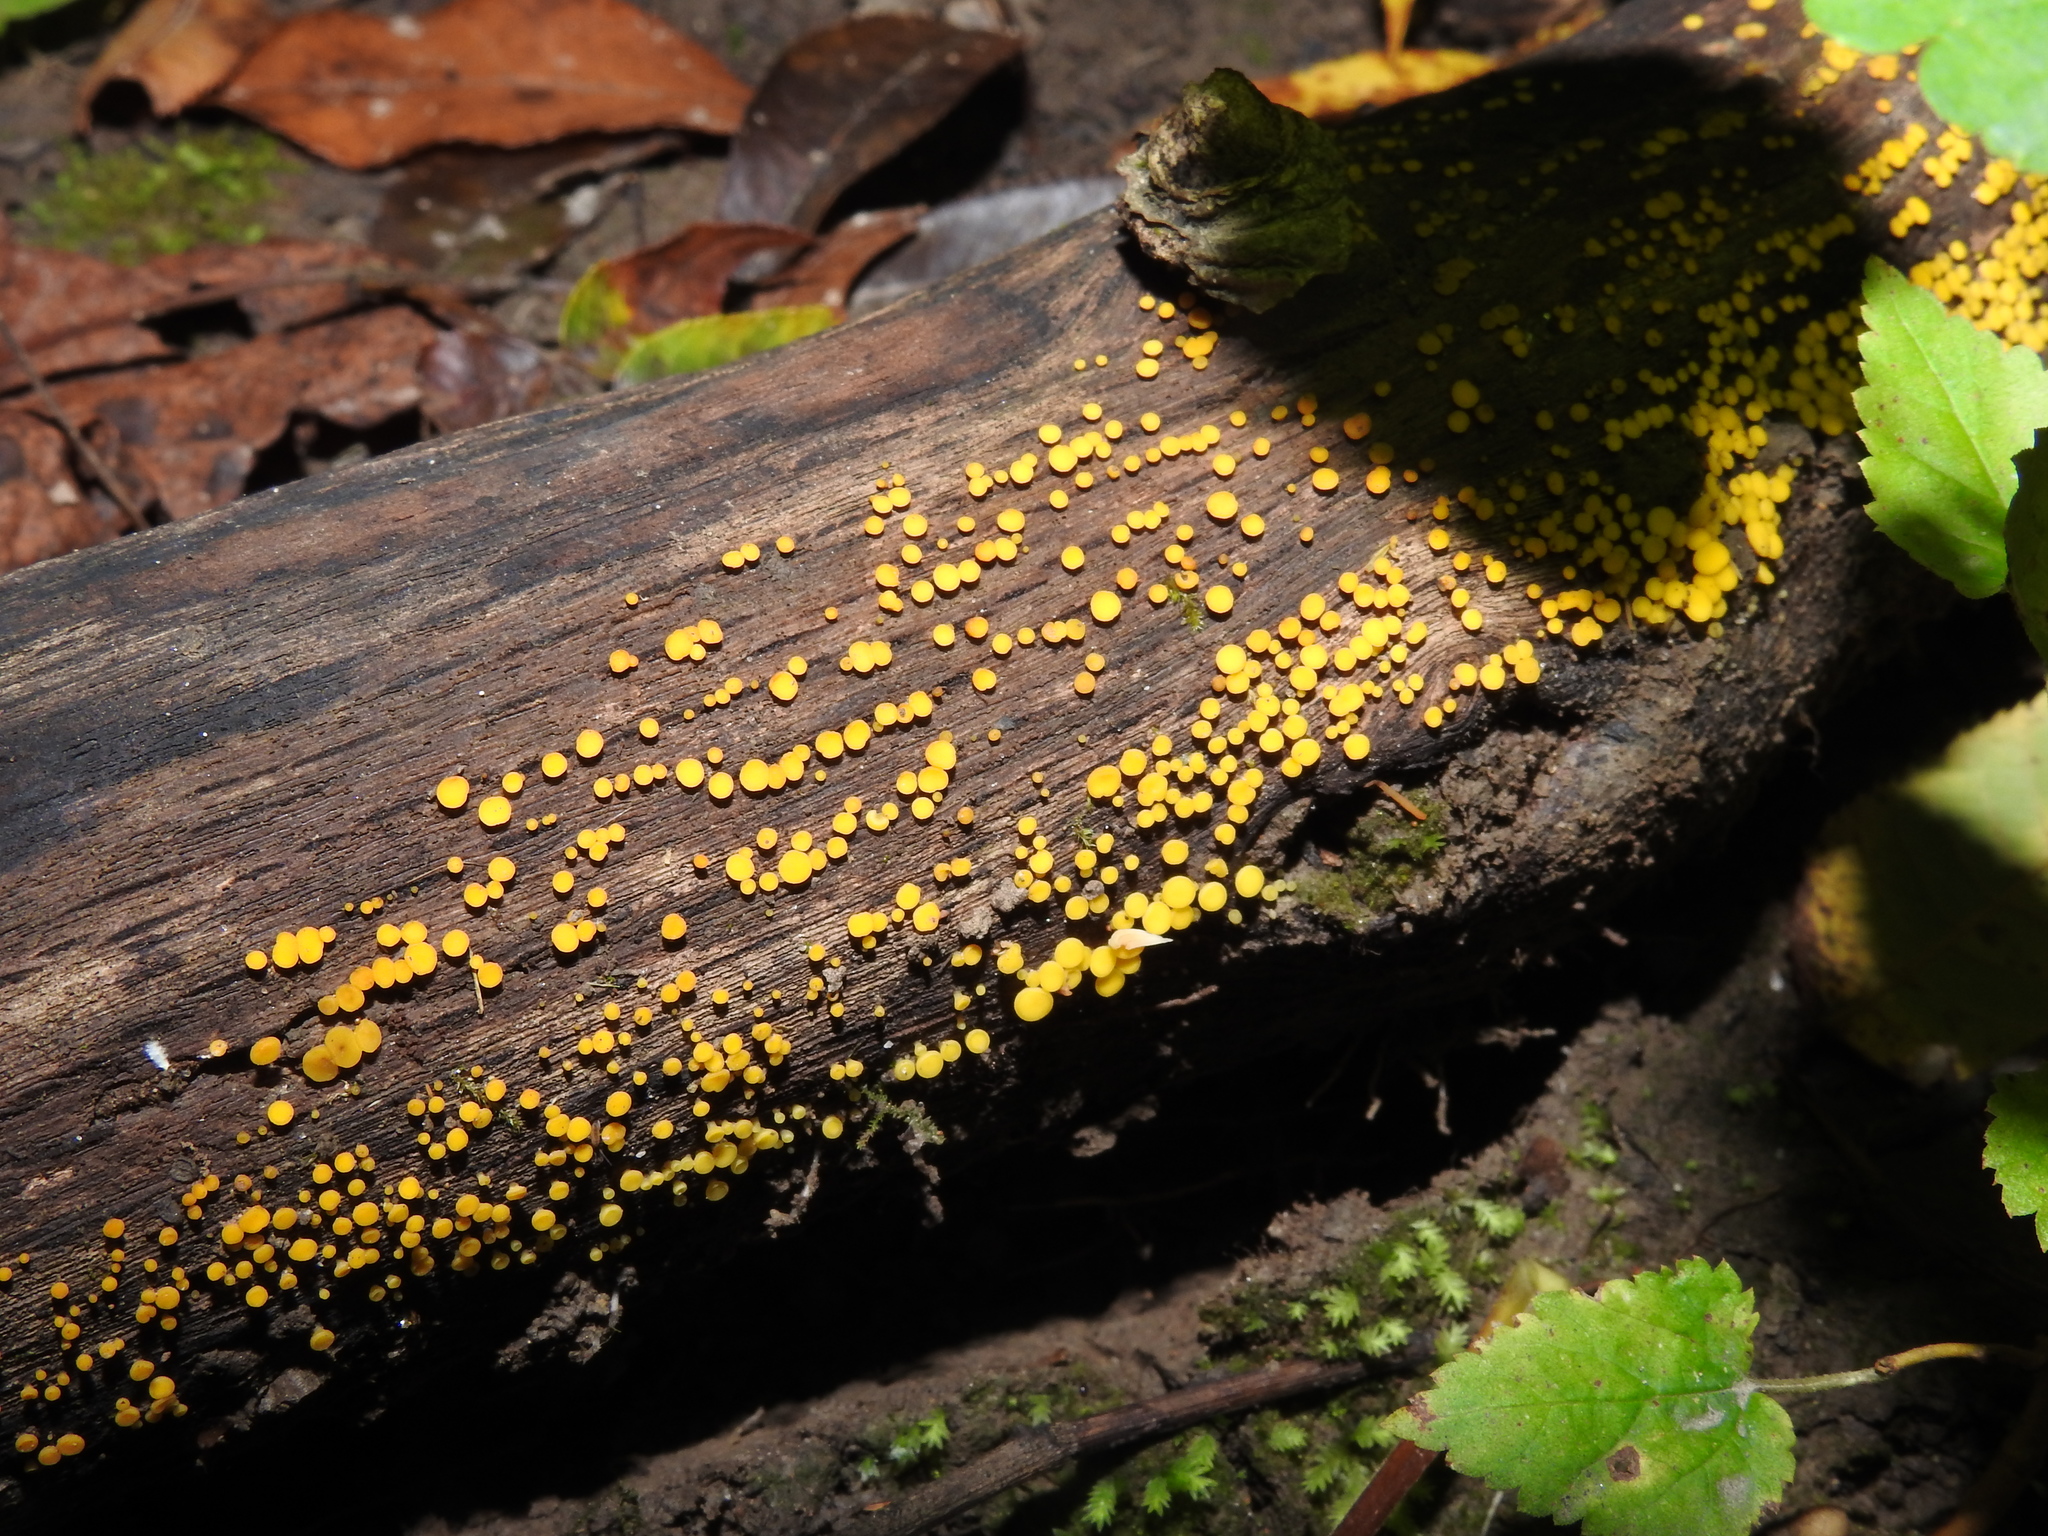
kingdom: Fungi
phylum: Ascomycota
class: Leotiomycetes
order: Helotiales
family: Pezizellaceae
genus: Calycina
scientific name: Calycina citrina
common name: Yellow fairy cups
